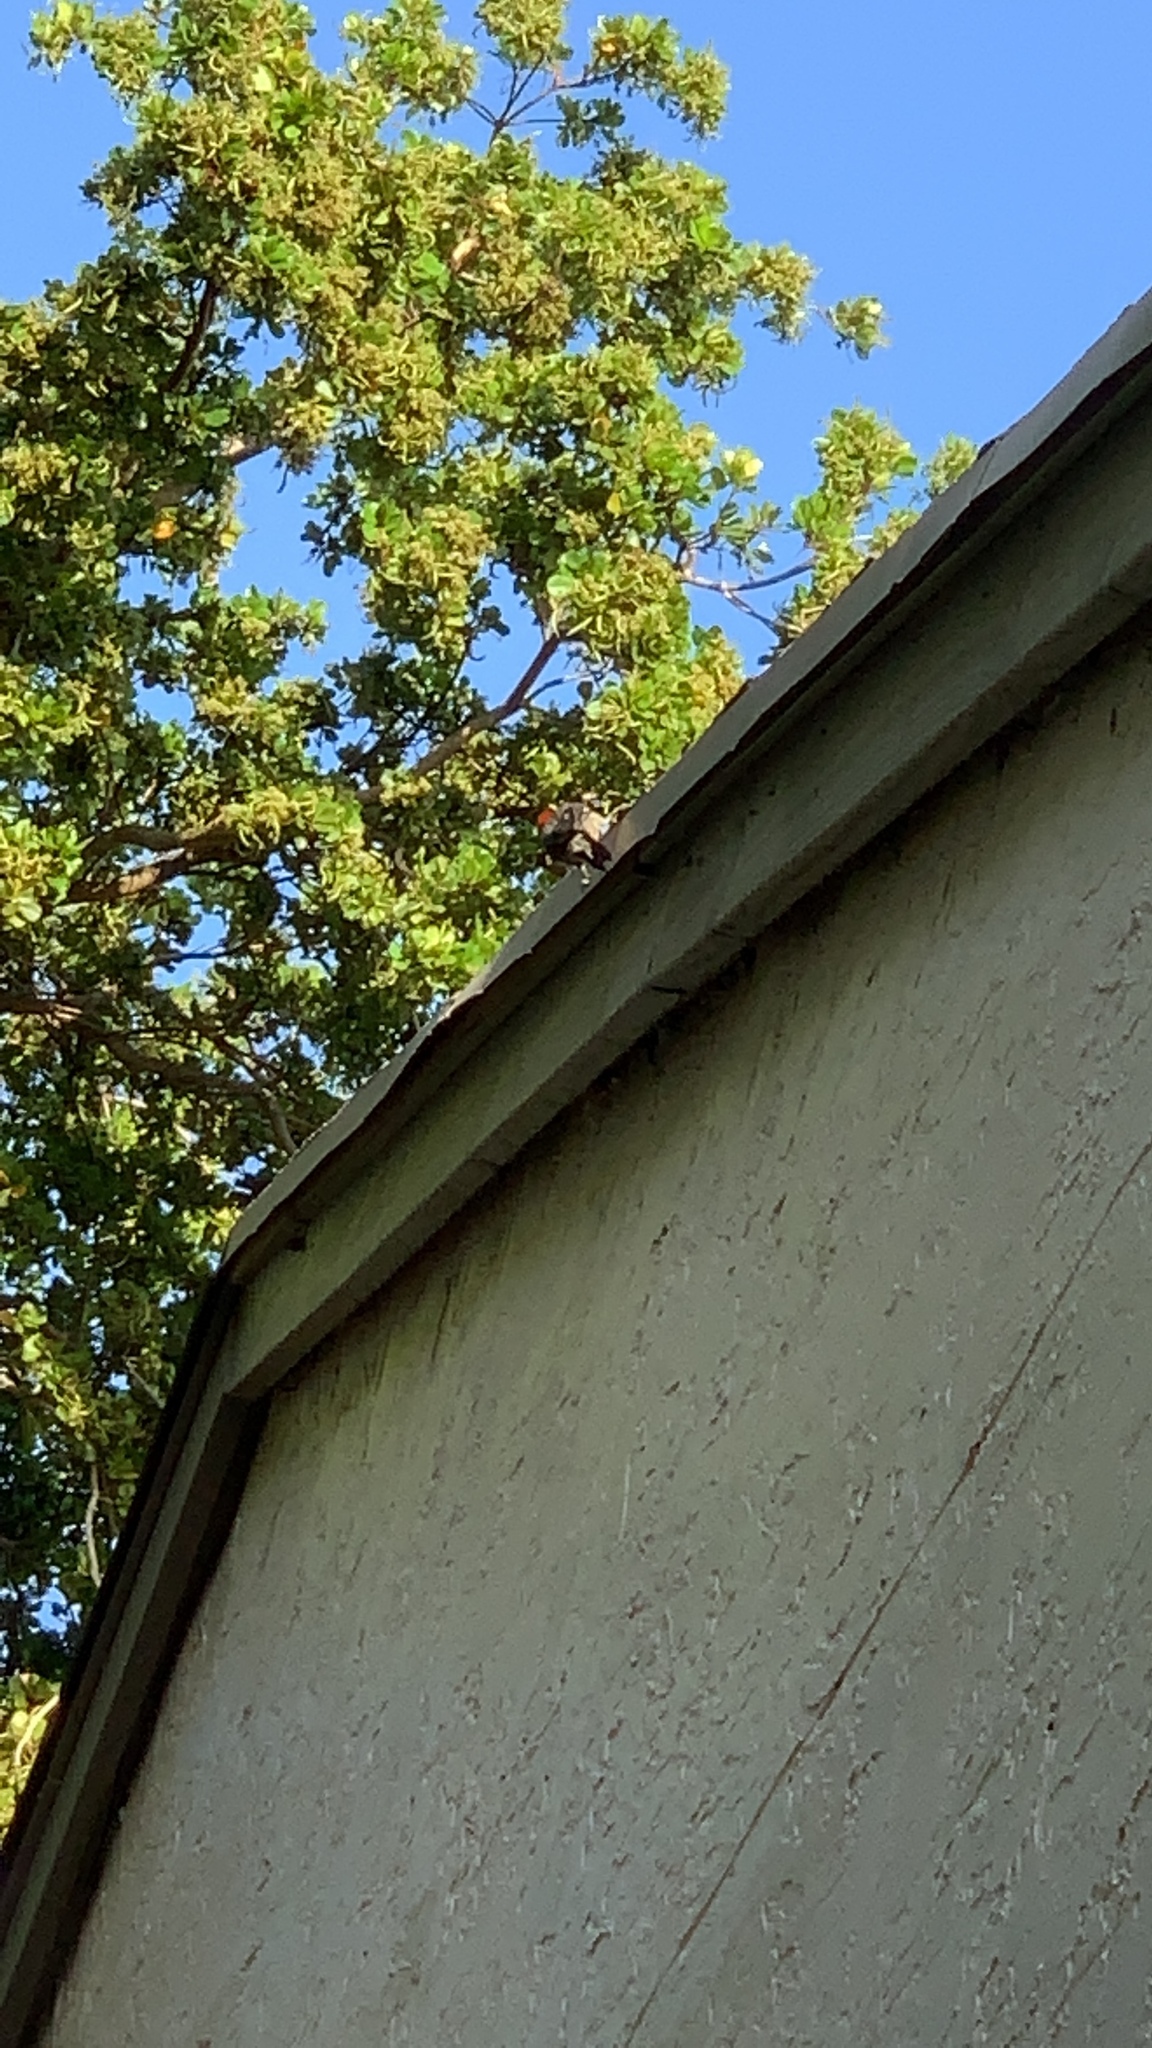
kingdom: Animalia
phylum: Chordata
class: Aves
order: Piciformes
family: Picidae
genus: Melanerpes
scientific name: Melanerpes carolinus
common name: Red-bellied woodpecker
